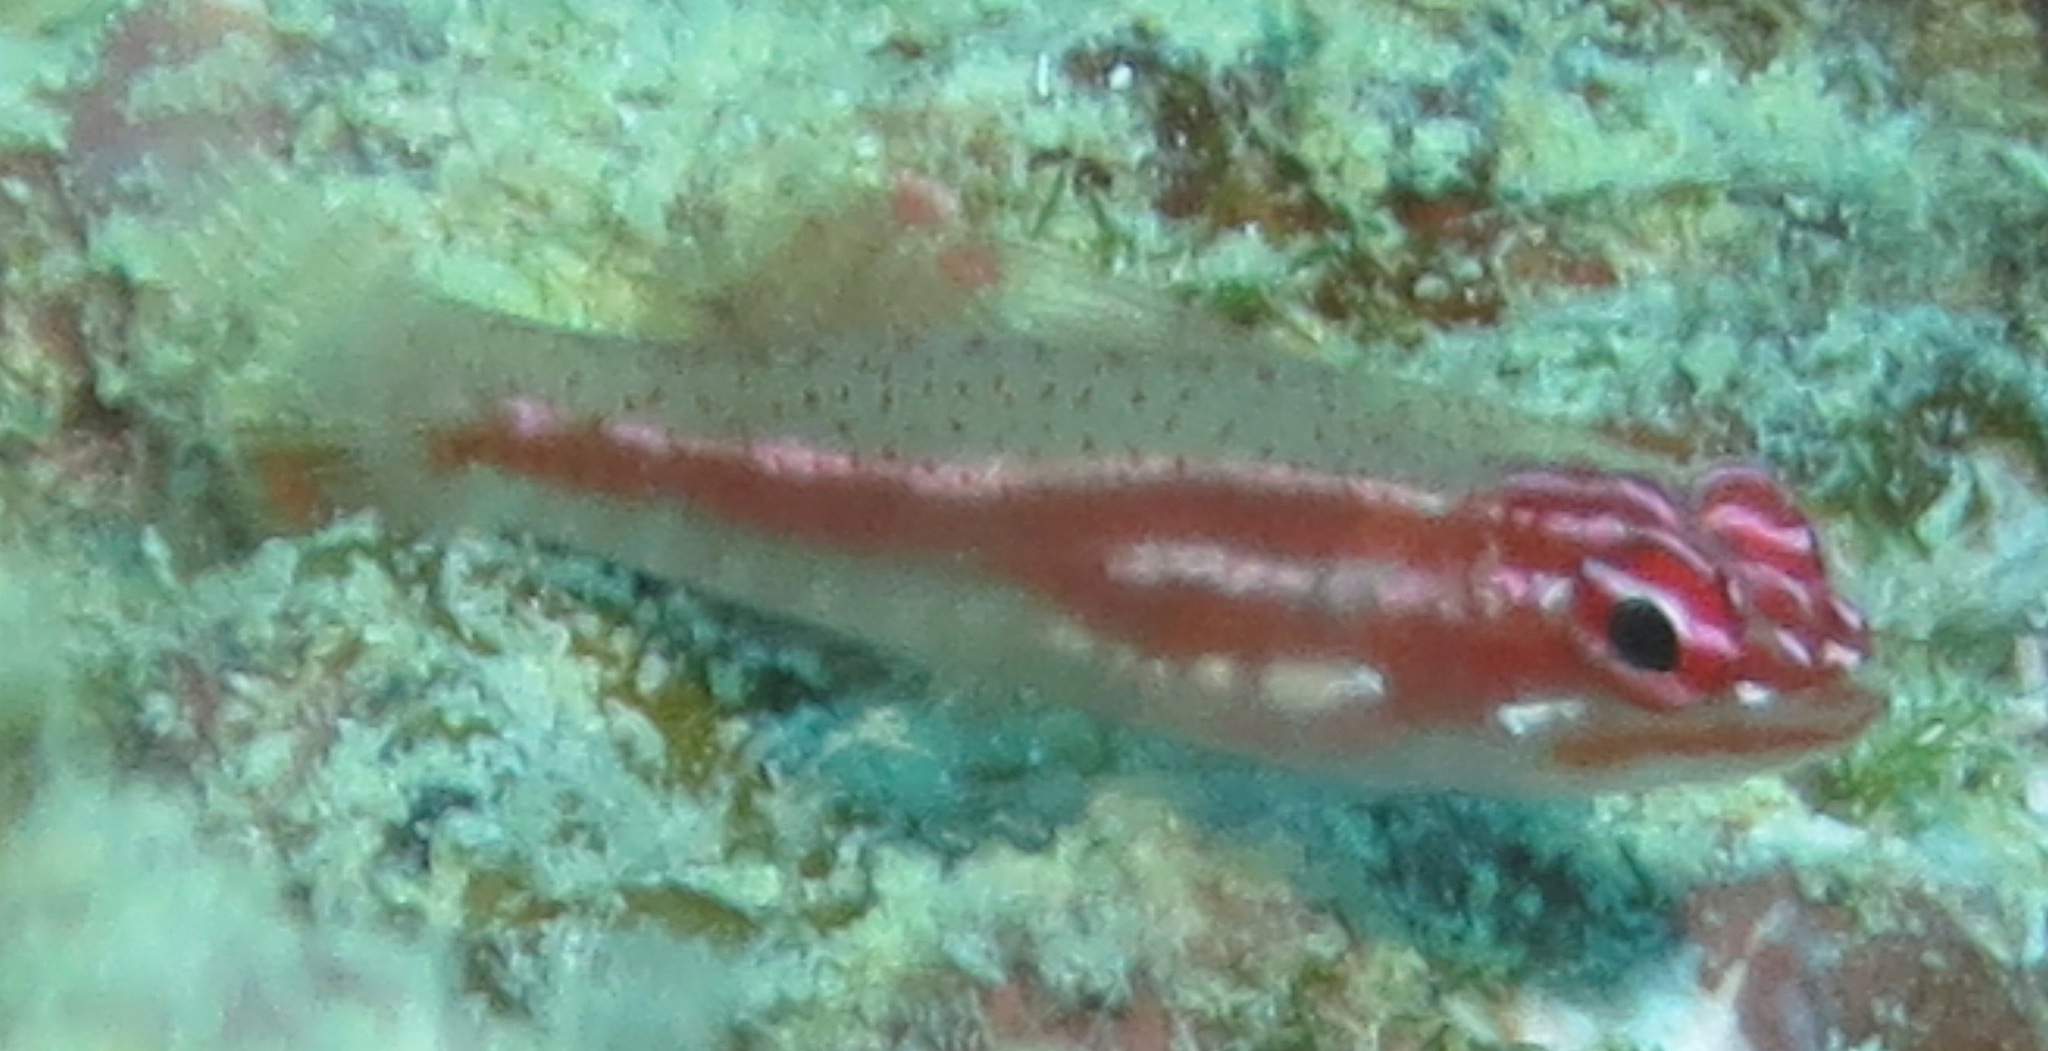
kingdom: Animalia
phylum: Chordata
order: Perciformes
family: Gobiidae
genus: Eviota
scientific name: Eviota prasites
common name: Hairfin eviota
